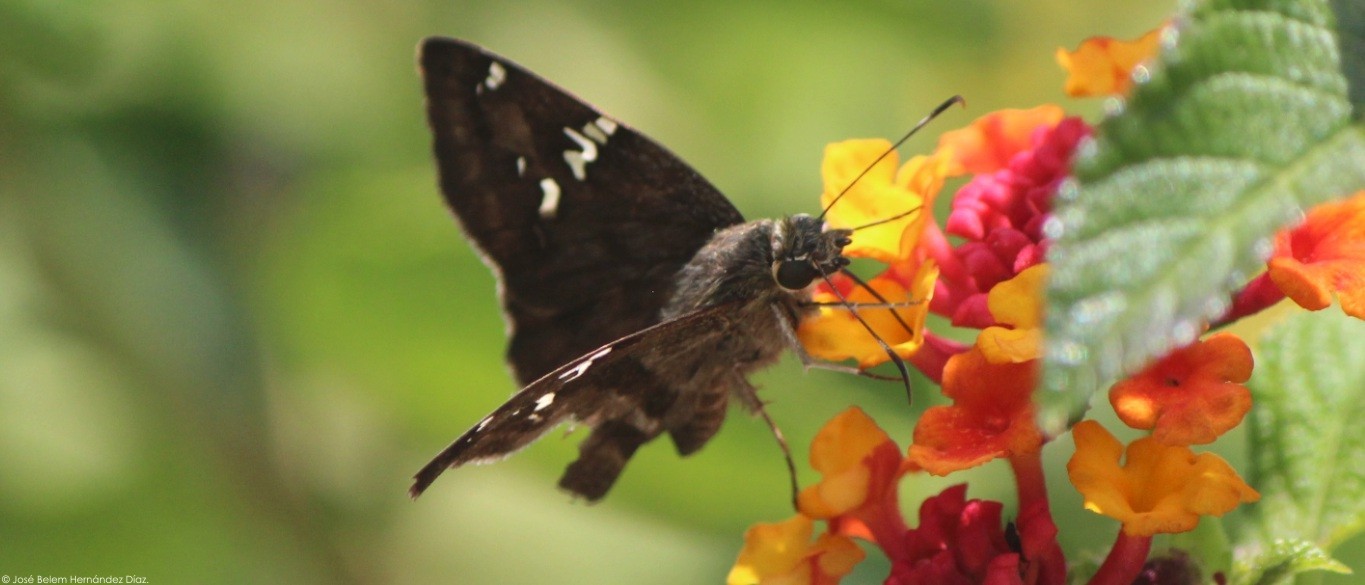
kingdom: Animalia
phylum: Arthropoda
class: Insecta
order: Lepidoptera
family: Hesperiidae
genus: Autochton
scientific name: Autochton potrillo
